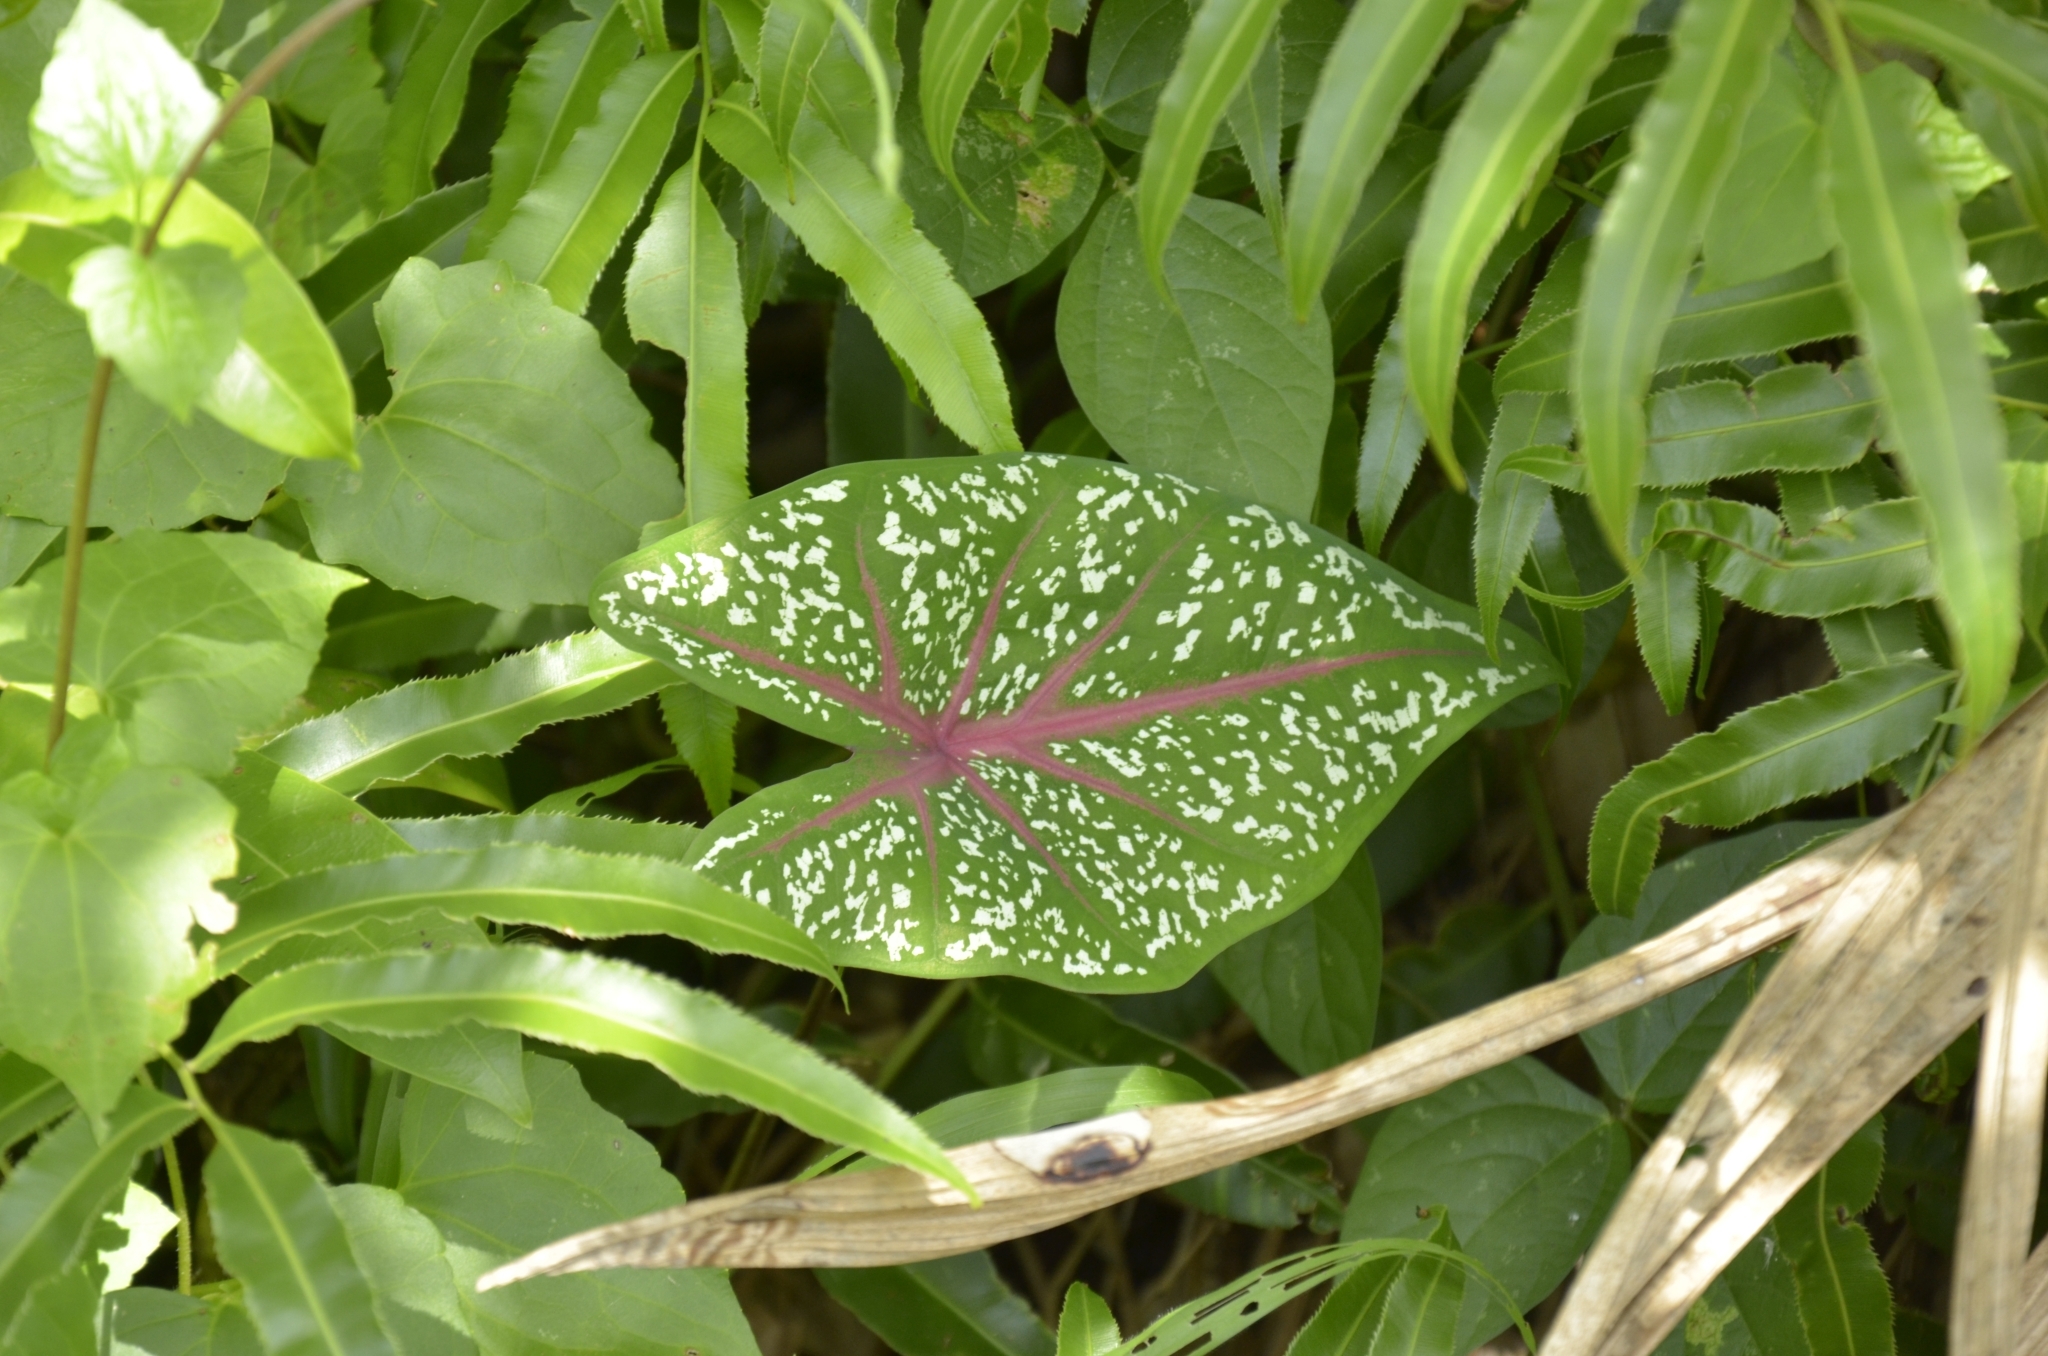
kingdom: Plantae
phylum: Tracheophyta
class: Liliopsida
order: Alismatales
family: Araceae
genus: Caladium
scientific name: Caladium bicolor
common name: Artist's pallet
